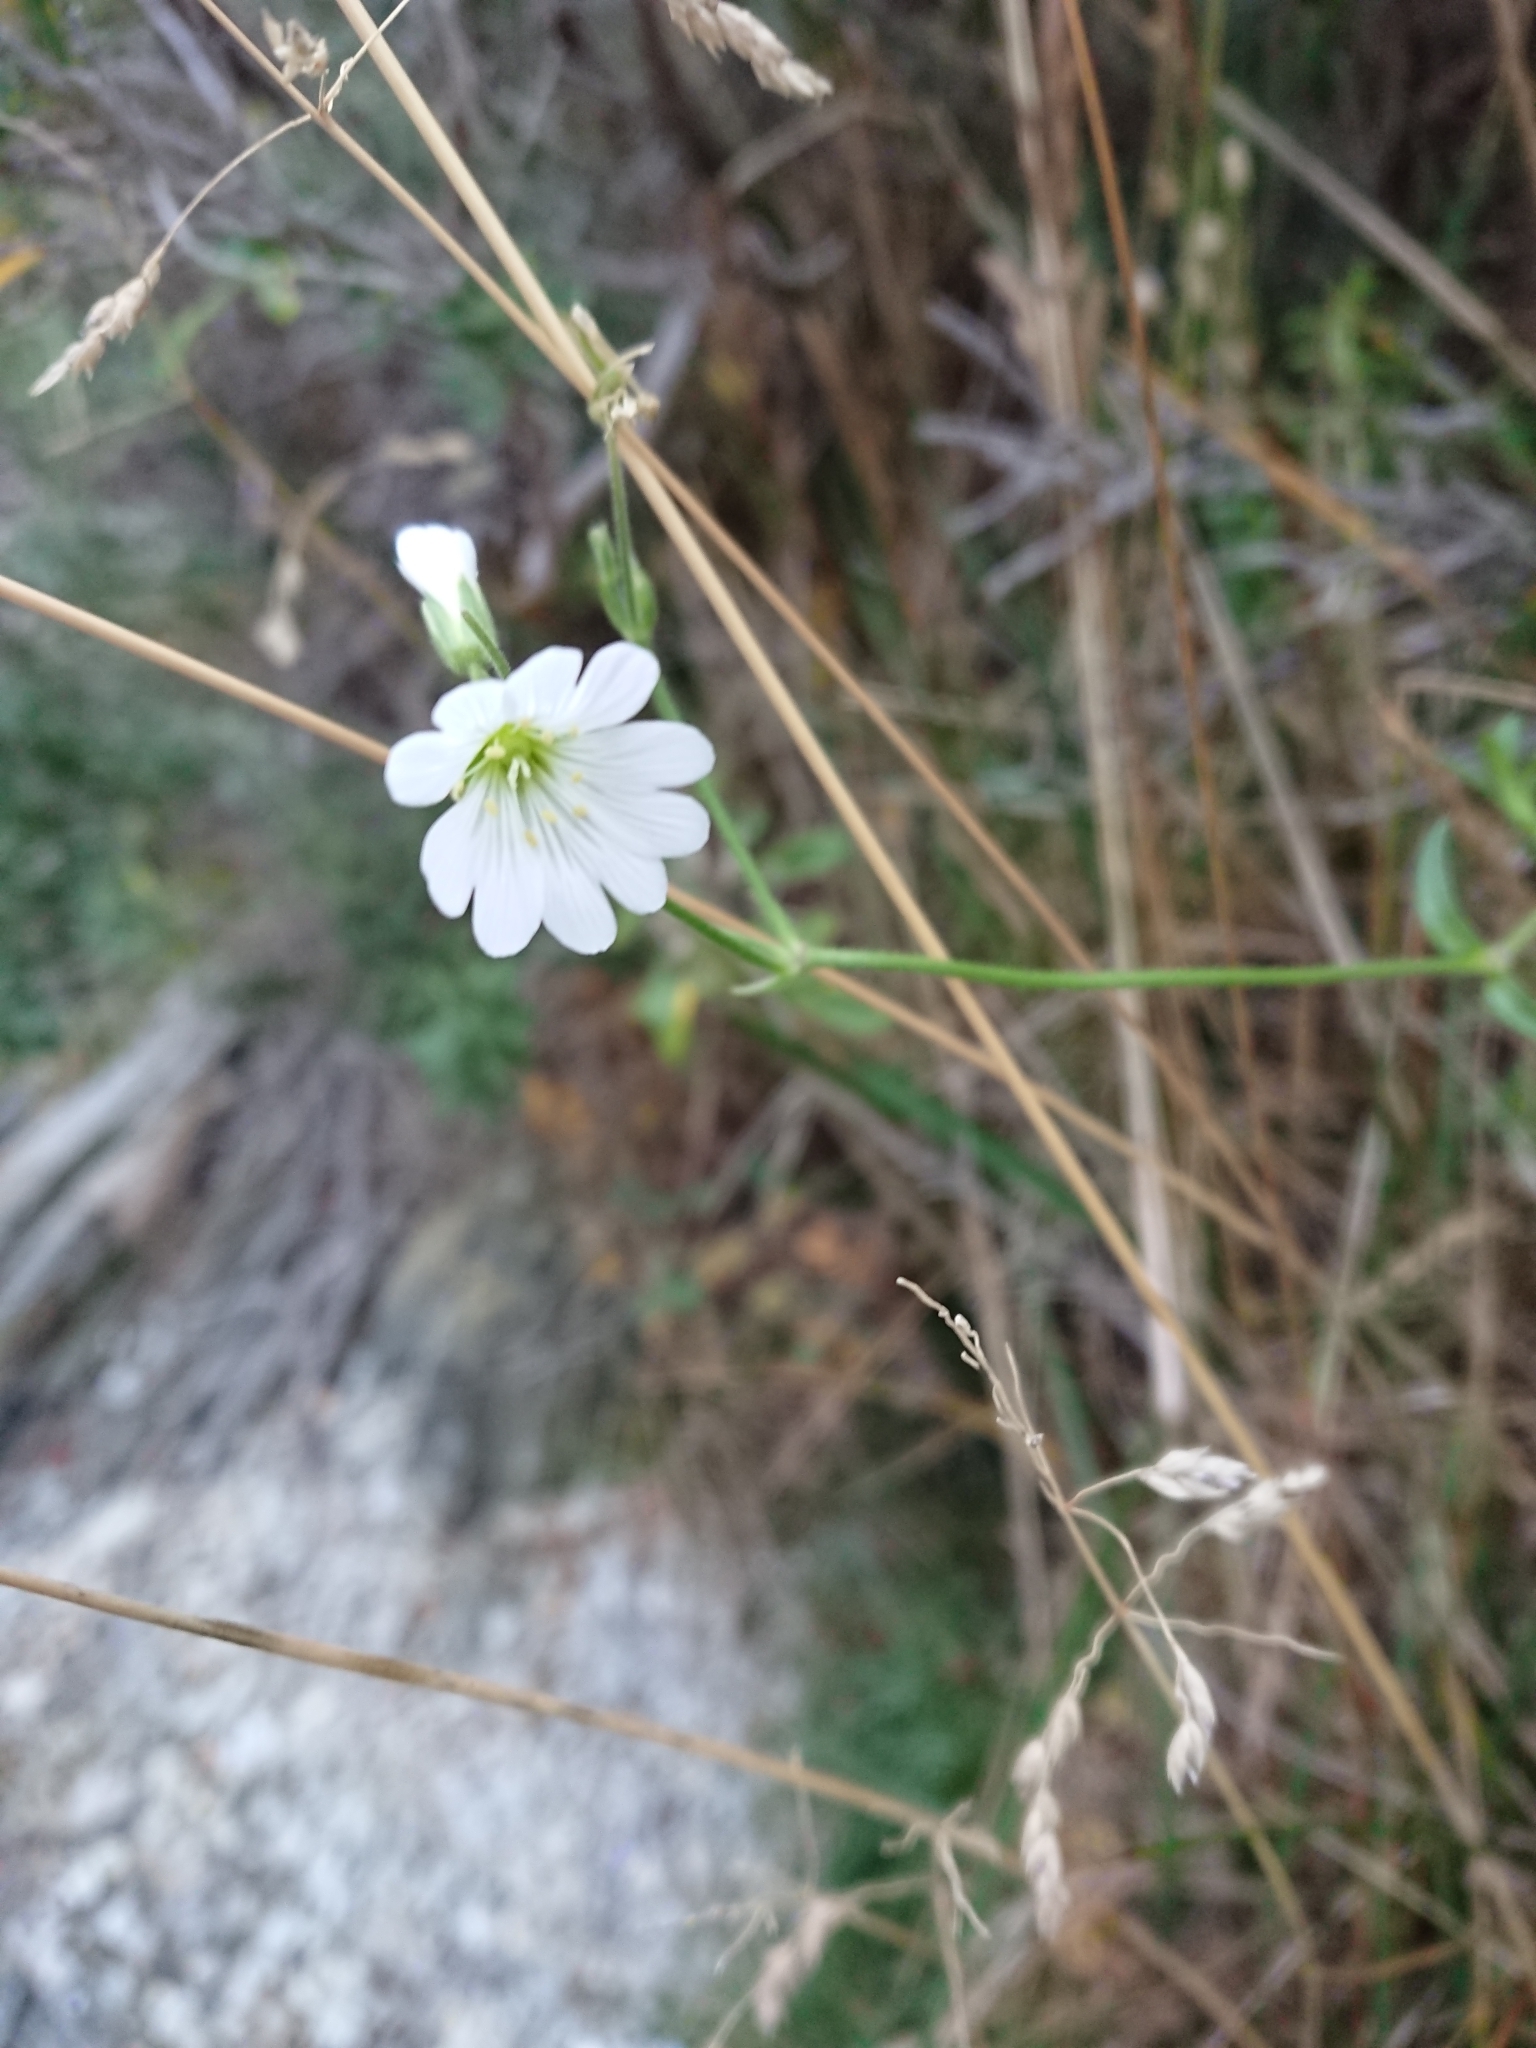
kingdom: Plantae
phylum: Tracheophyta
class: Magnoliopsida
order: Caryophyllales
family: Caryophyllaceae
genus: Cerastium
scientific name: Cerastium arvense
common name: Field mouse-ear
